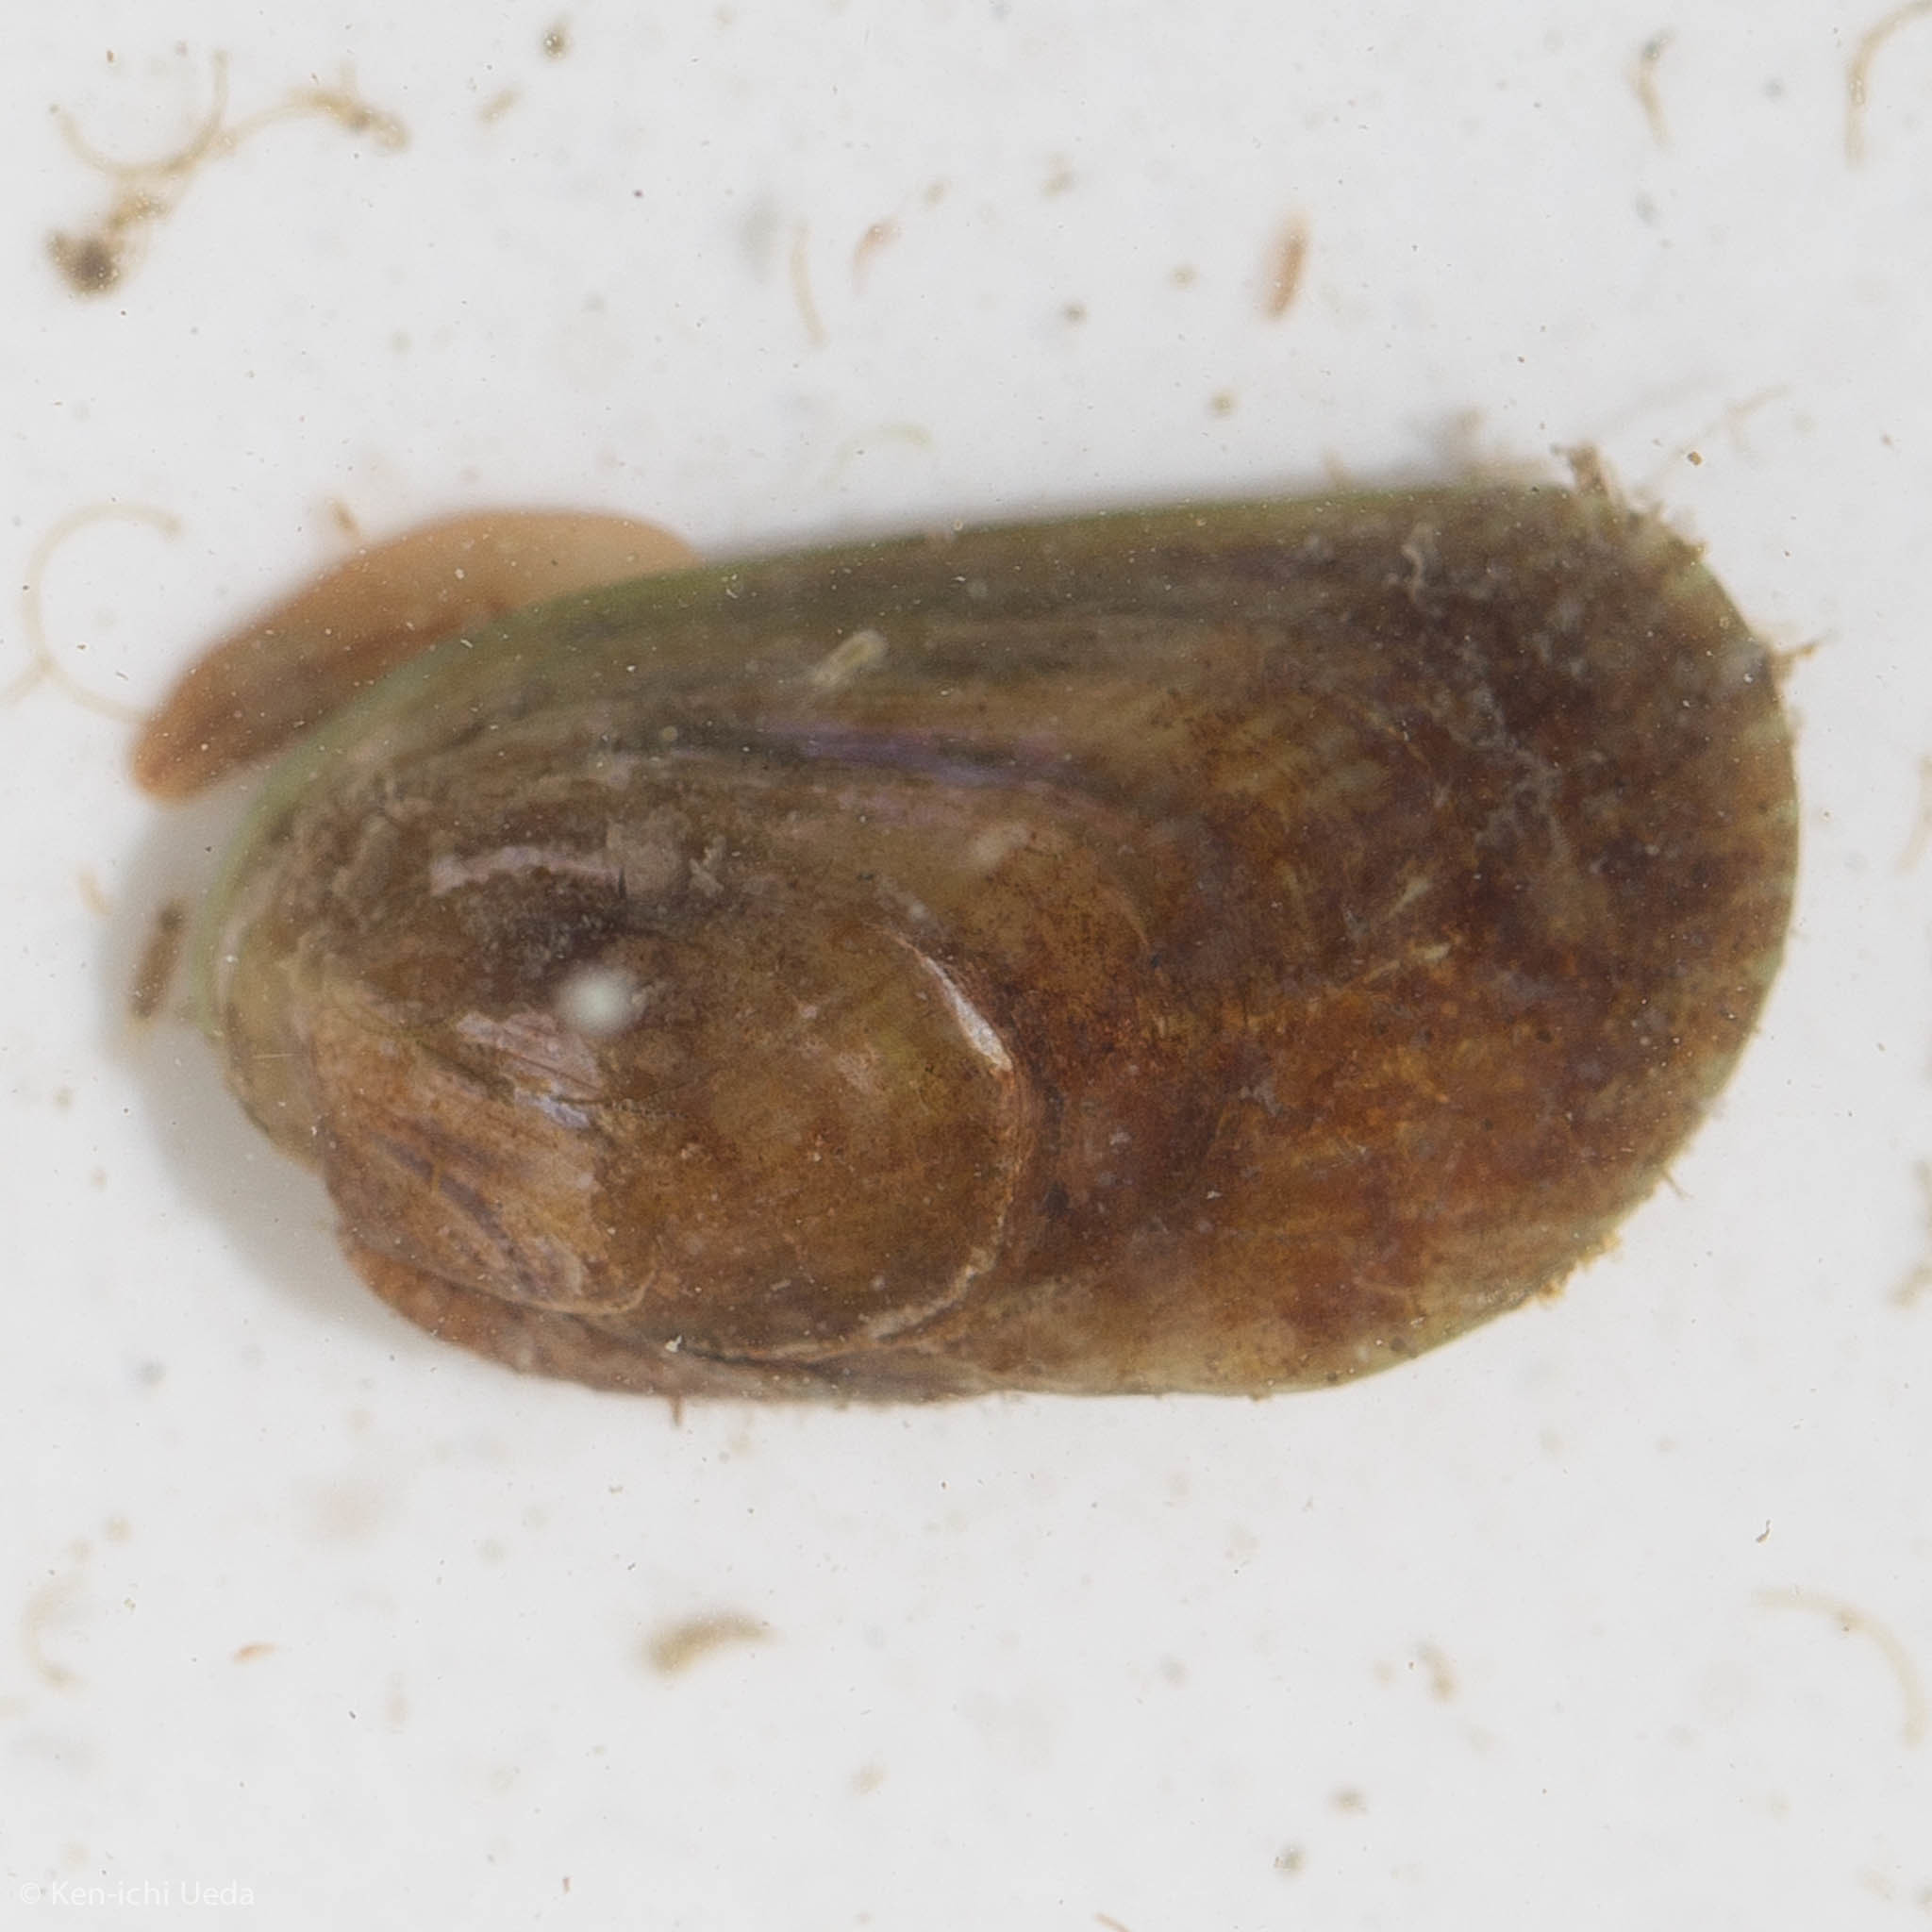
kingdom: Animalia
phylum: Mollusca
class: Bivalvia
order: Mytilida
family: Mytilidae
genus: Arcuatula
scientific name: Arcuatula senhousia
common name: Asian mussel
